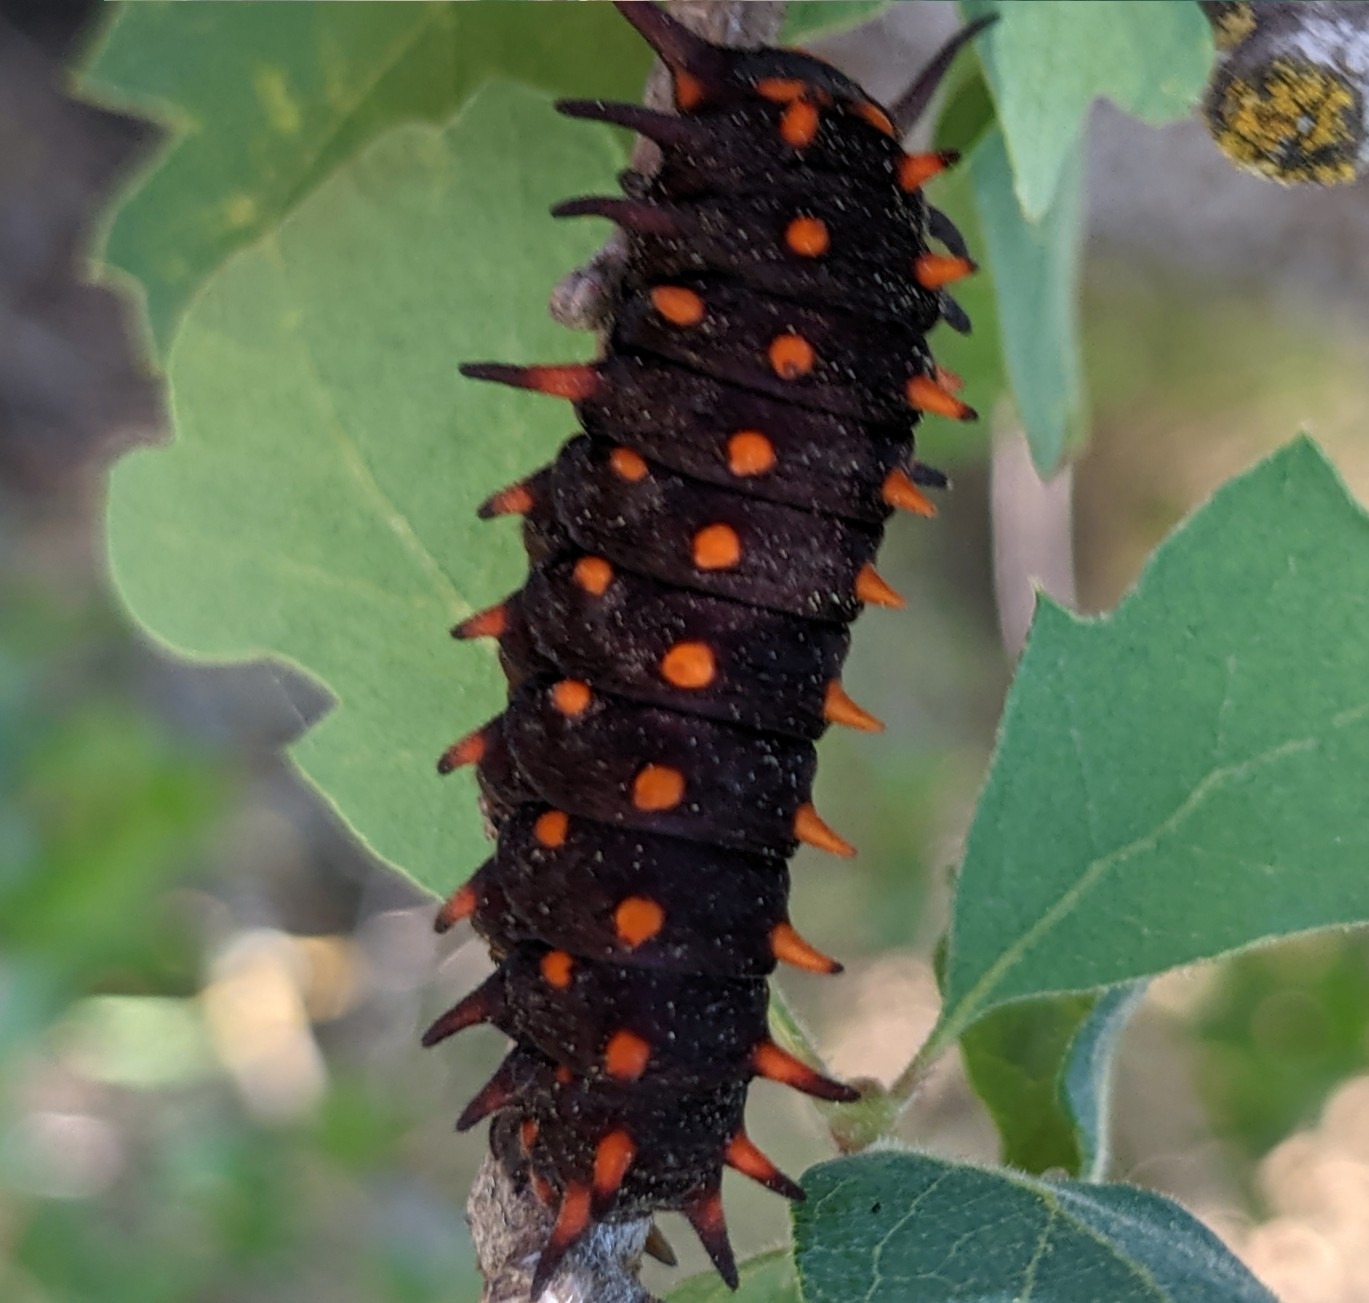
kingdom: Animalia
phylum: Arthropoda
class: Insecta
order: Lepidoptera
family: Papilionidae
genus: Battus
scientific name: Battus philenor
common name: Pipevine swallowtail
